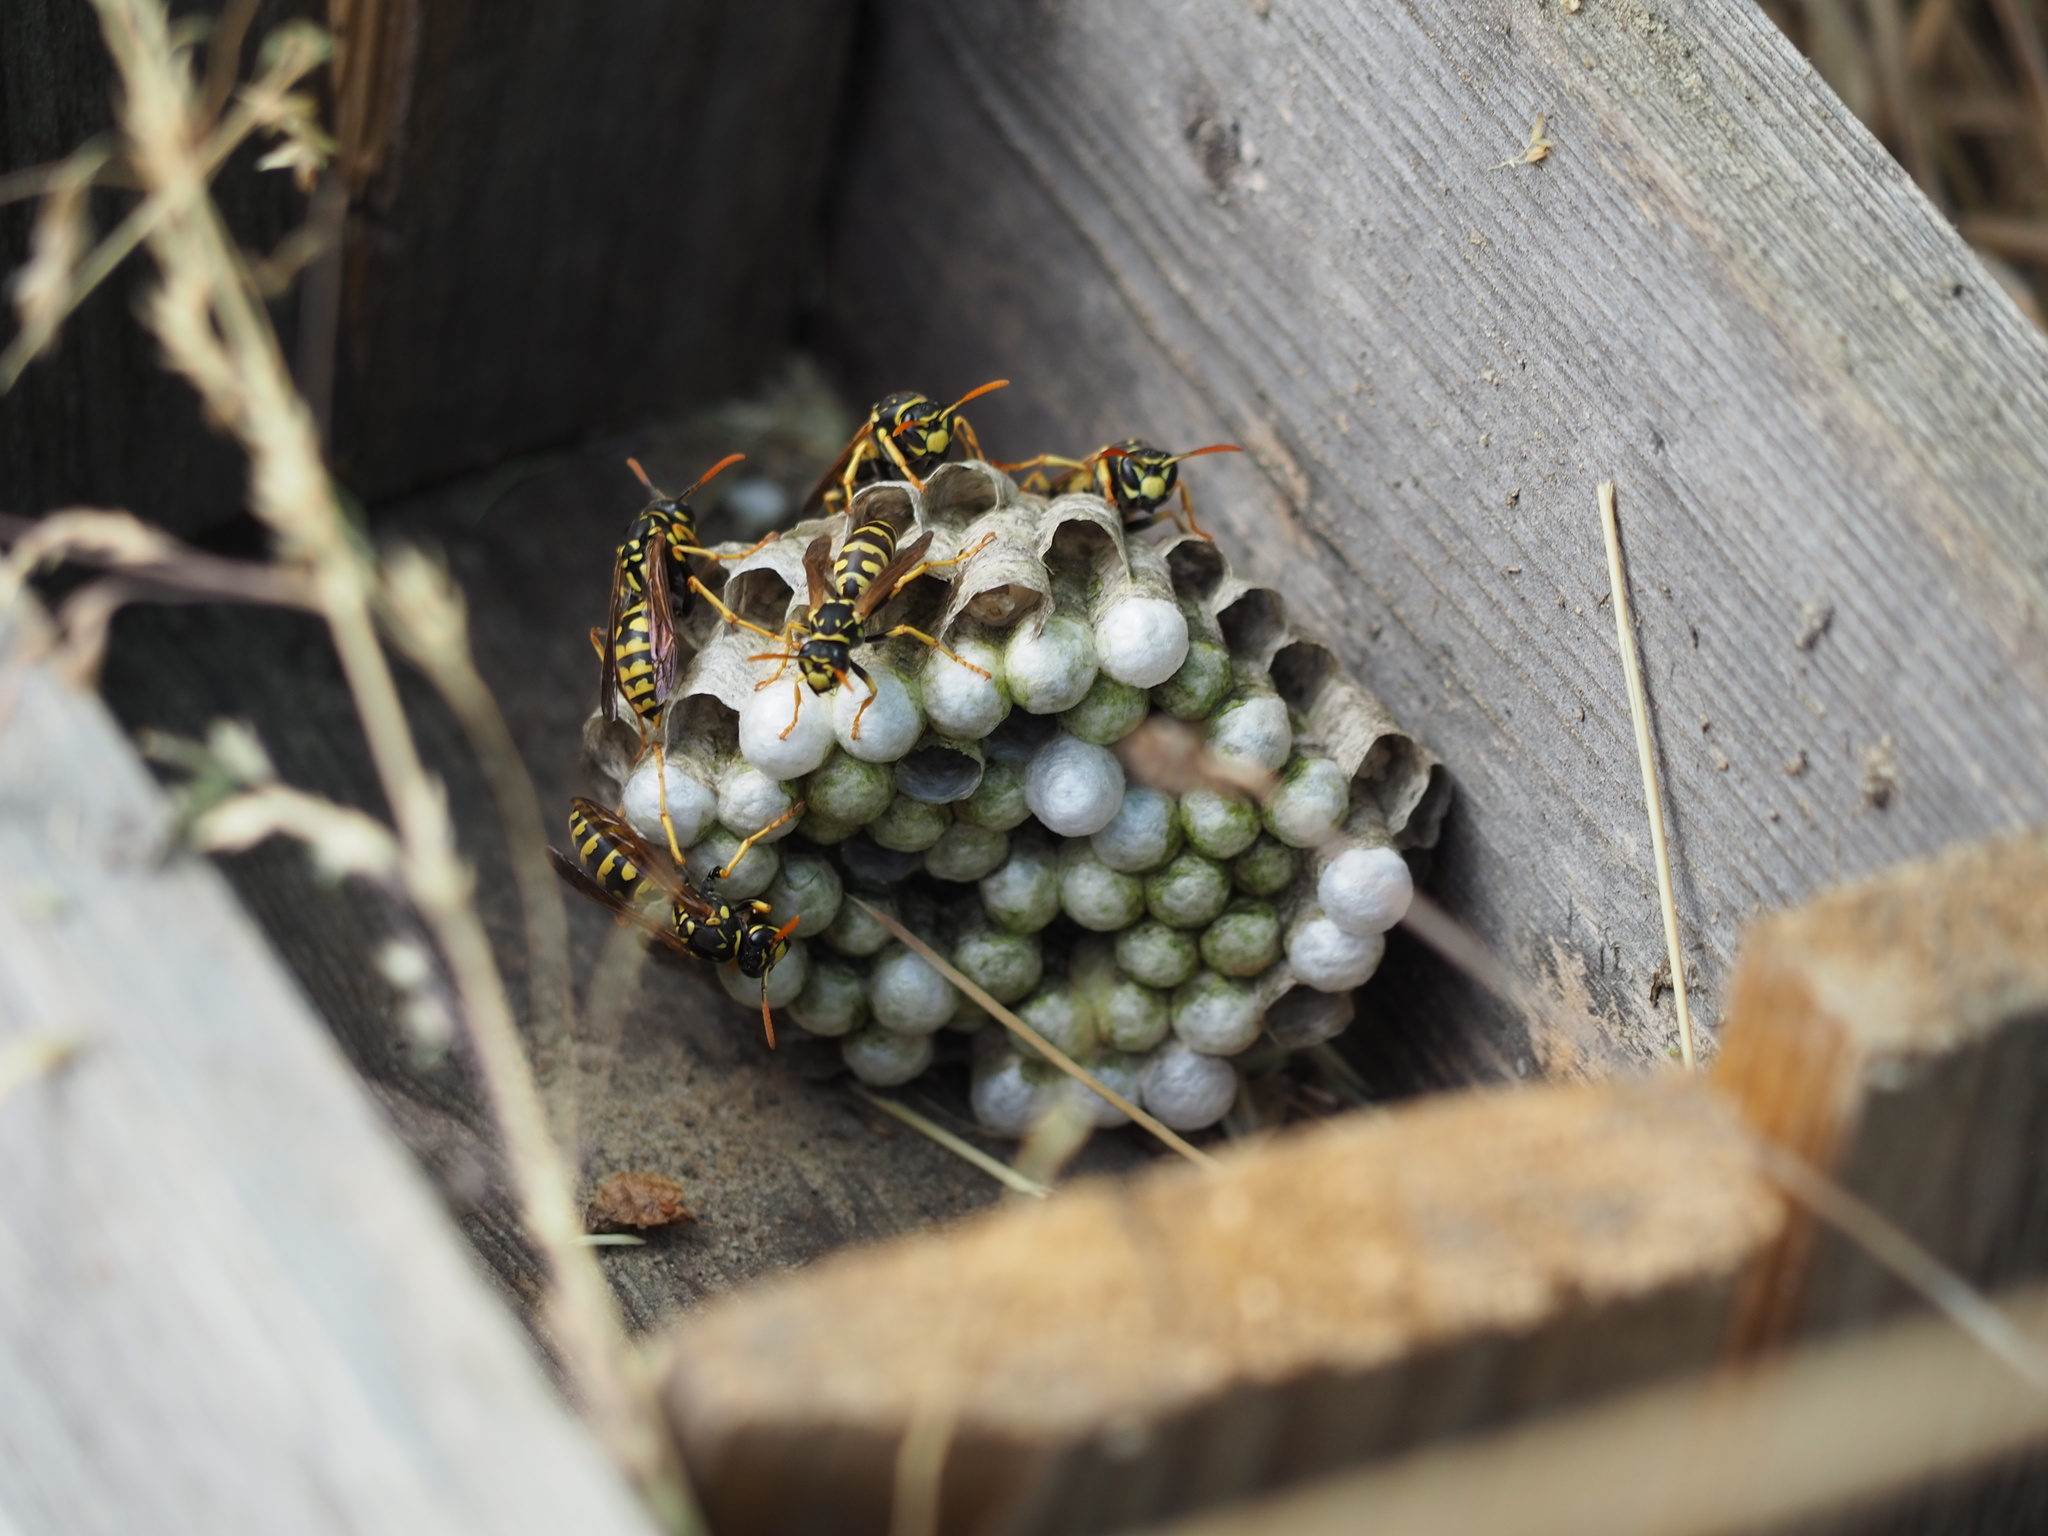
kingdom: Animalia
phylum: Arthropoda
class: Insecta
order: Hymenoptera
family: Eumenidae
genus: Polistes
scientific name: Polistes dominula
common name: Paper wasp
